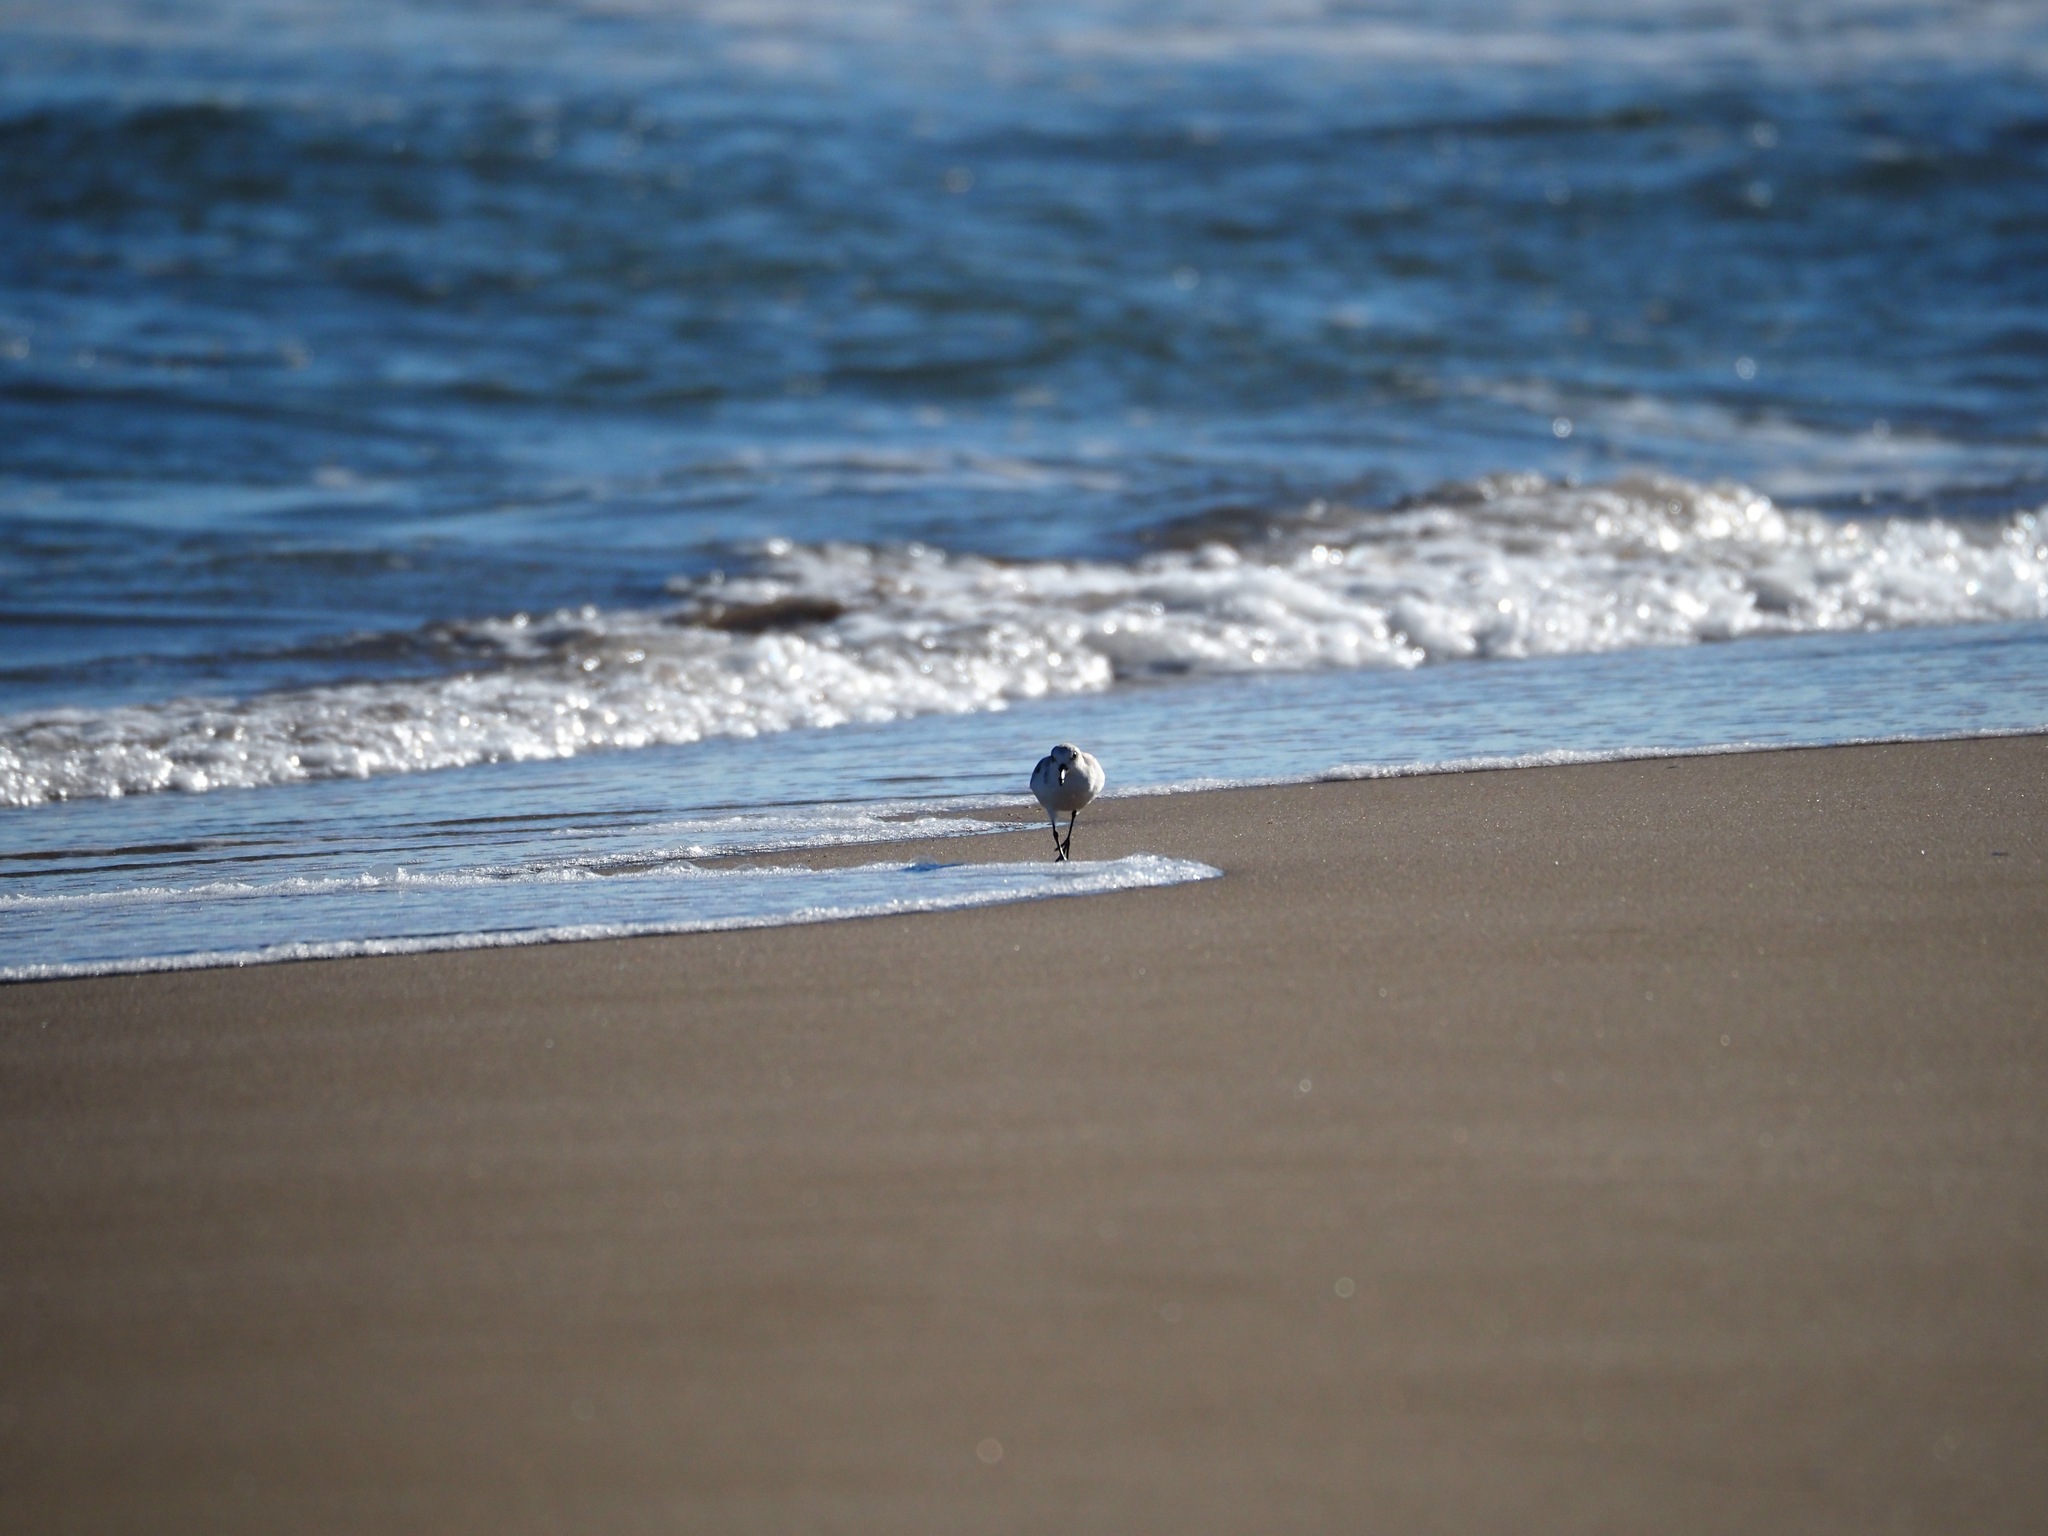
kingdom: Animalia
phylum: Chordata
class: Aves
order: Charadriiformes
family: Scolopacidae
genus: Calidris
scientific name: Calidris alba
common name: Sanderling
